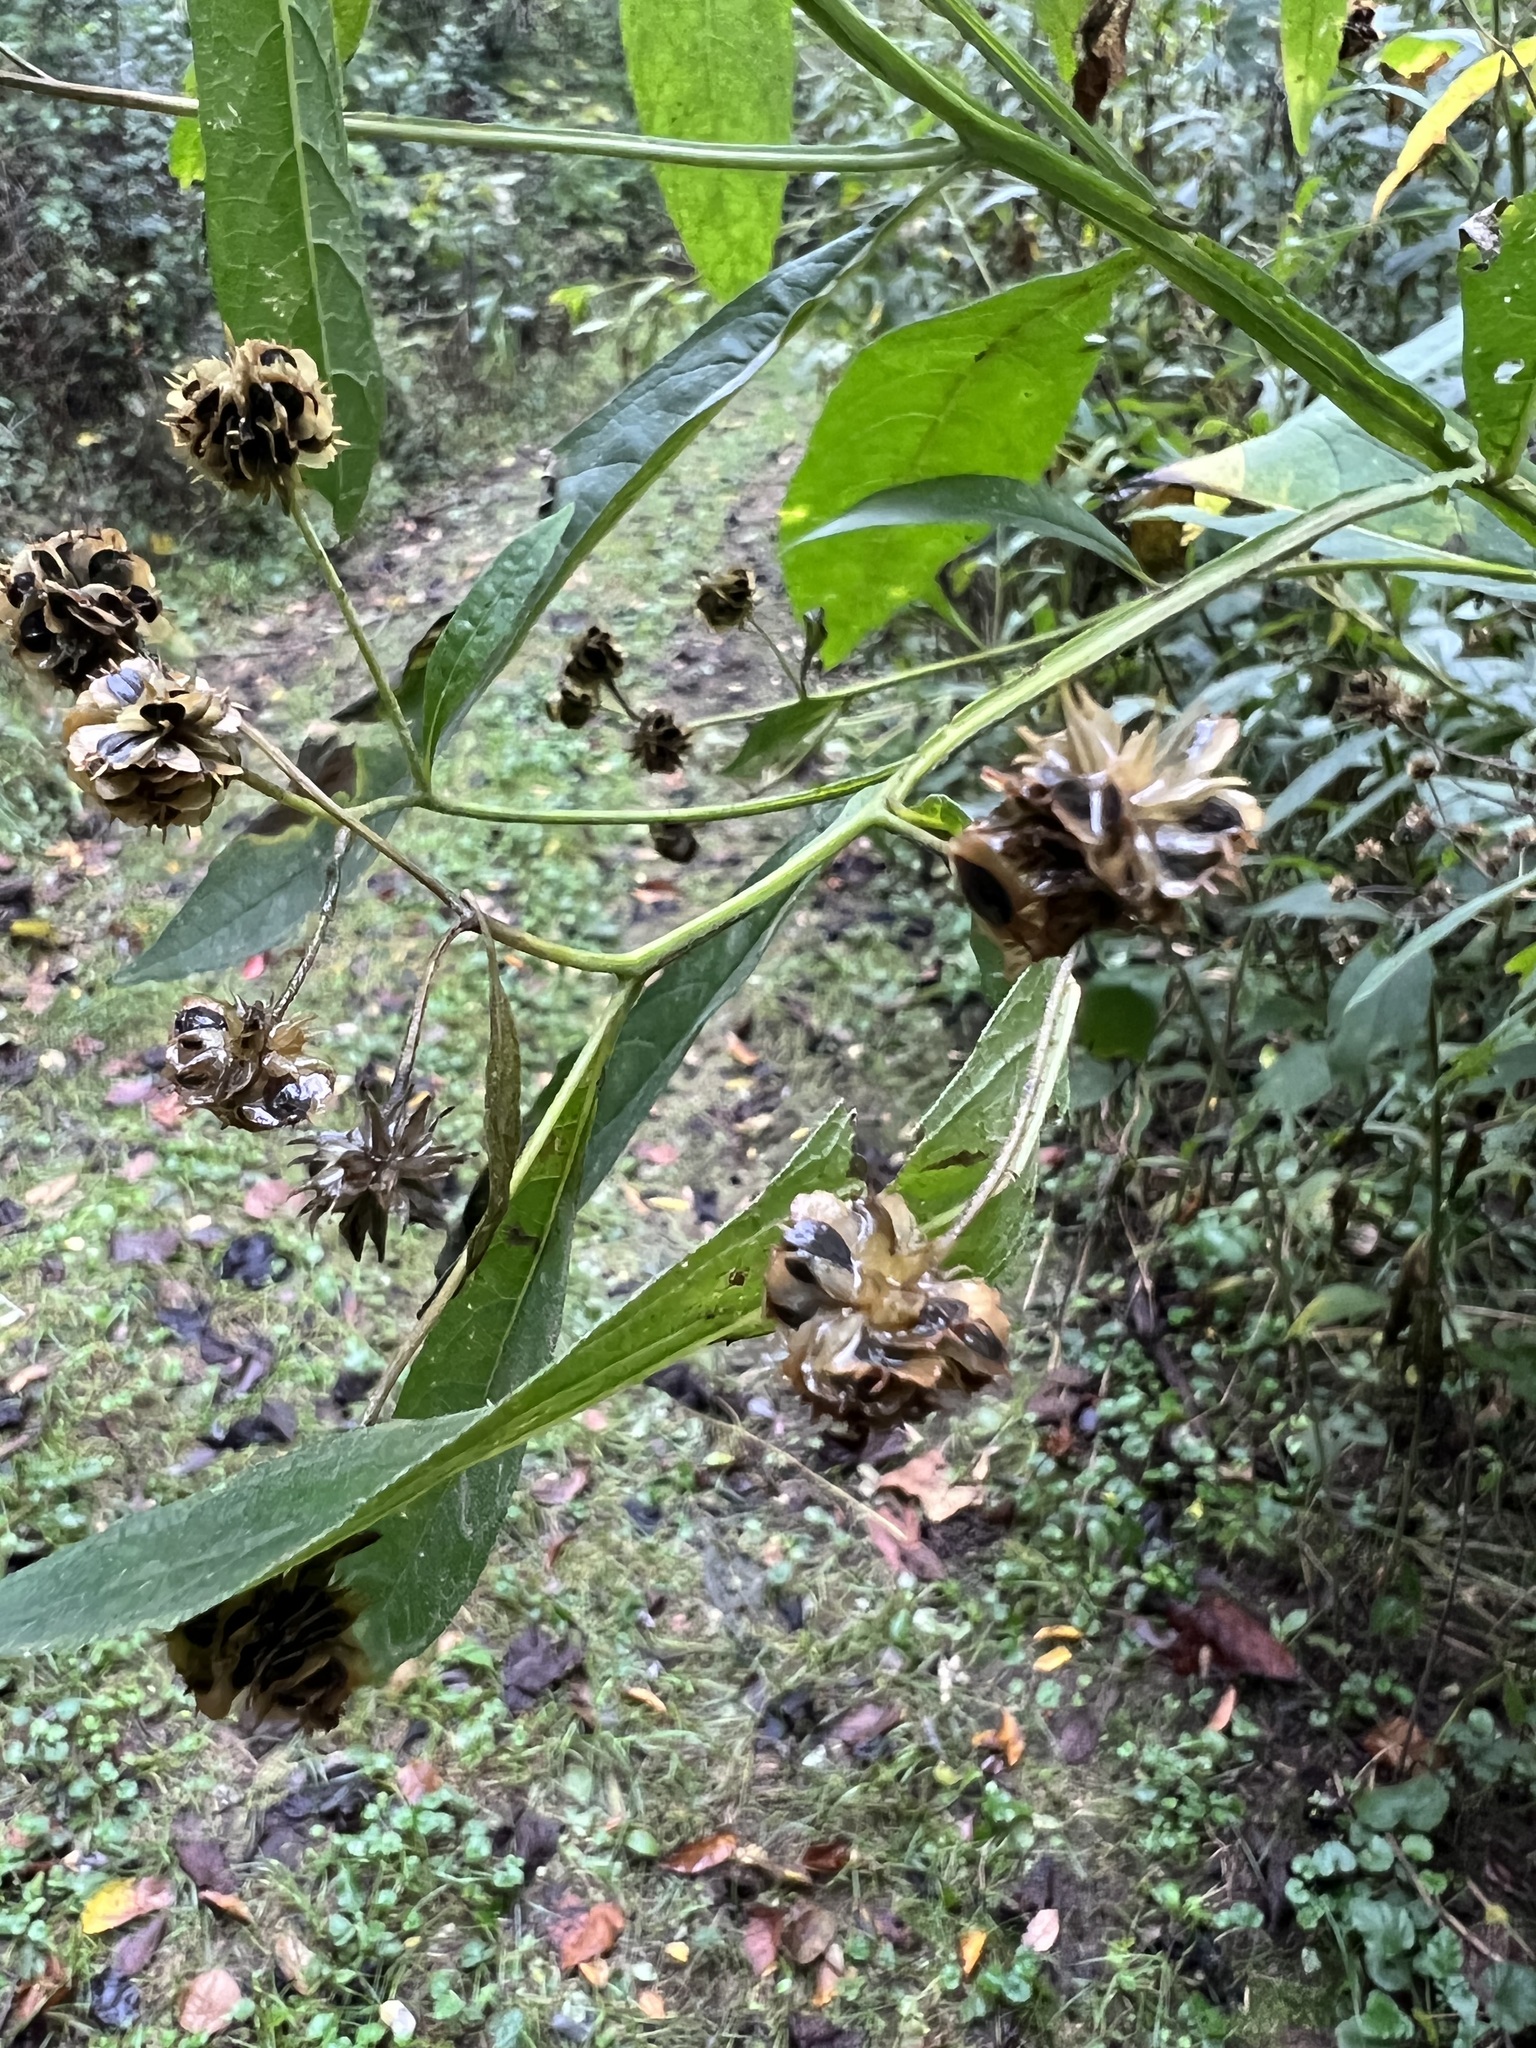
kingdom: Plantae
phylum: Tracheophyta
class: Magnoliopsida
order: Asterales
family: Asteraceae
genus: Verbesina
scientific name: Verbesina alternifolia
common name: Wingstem
